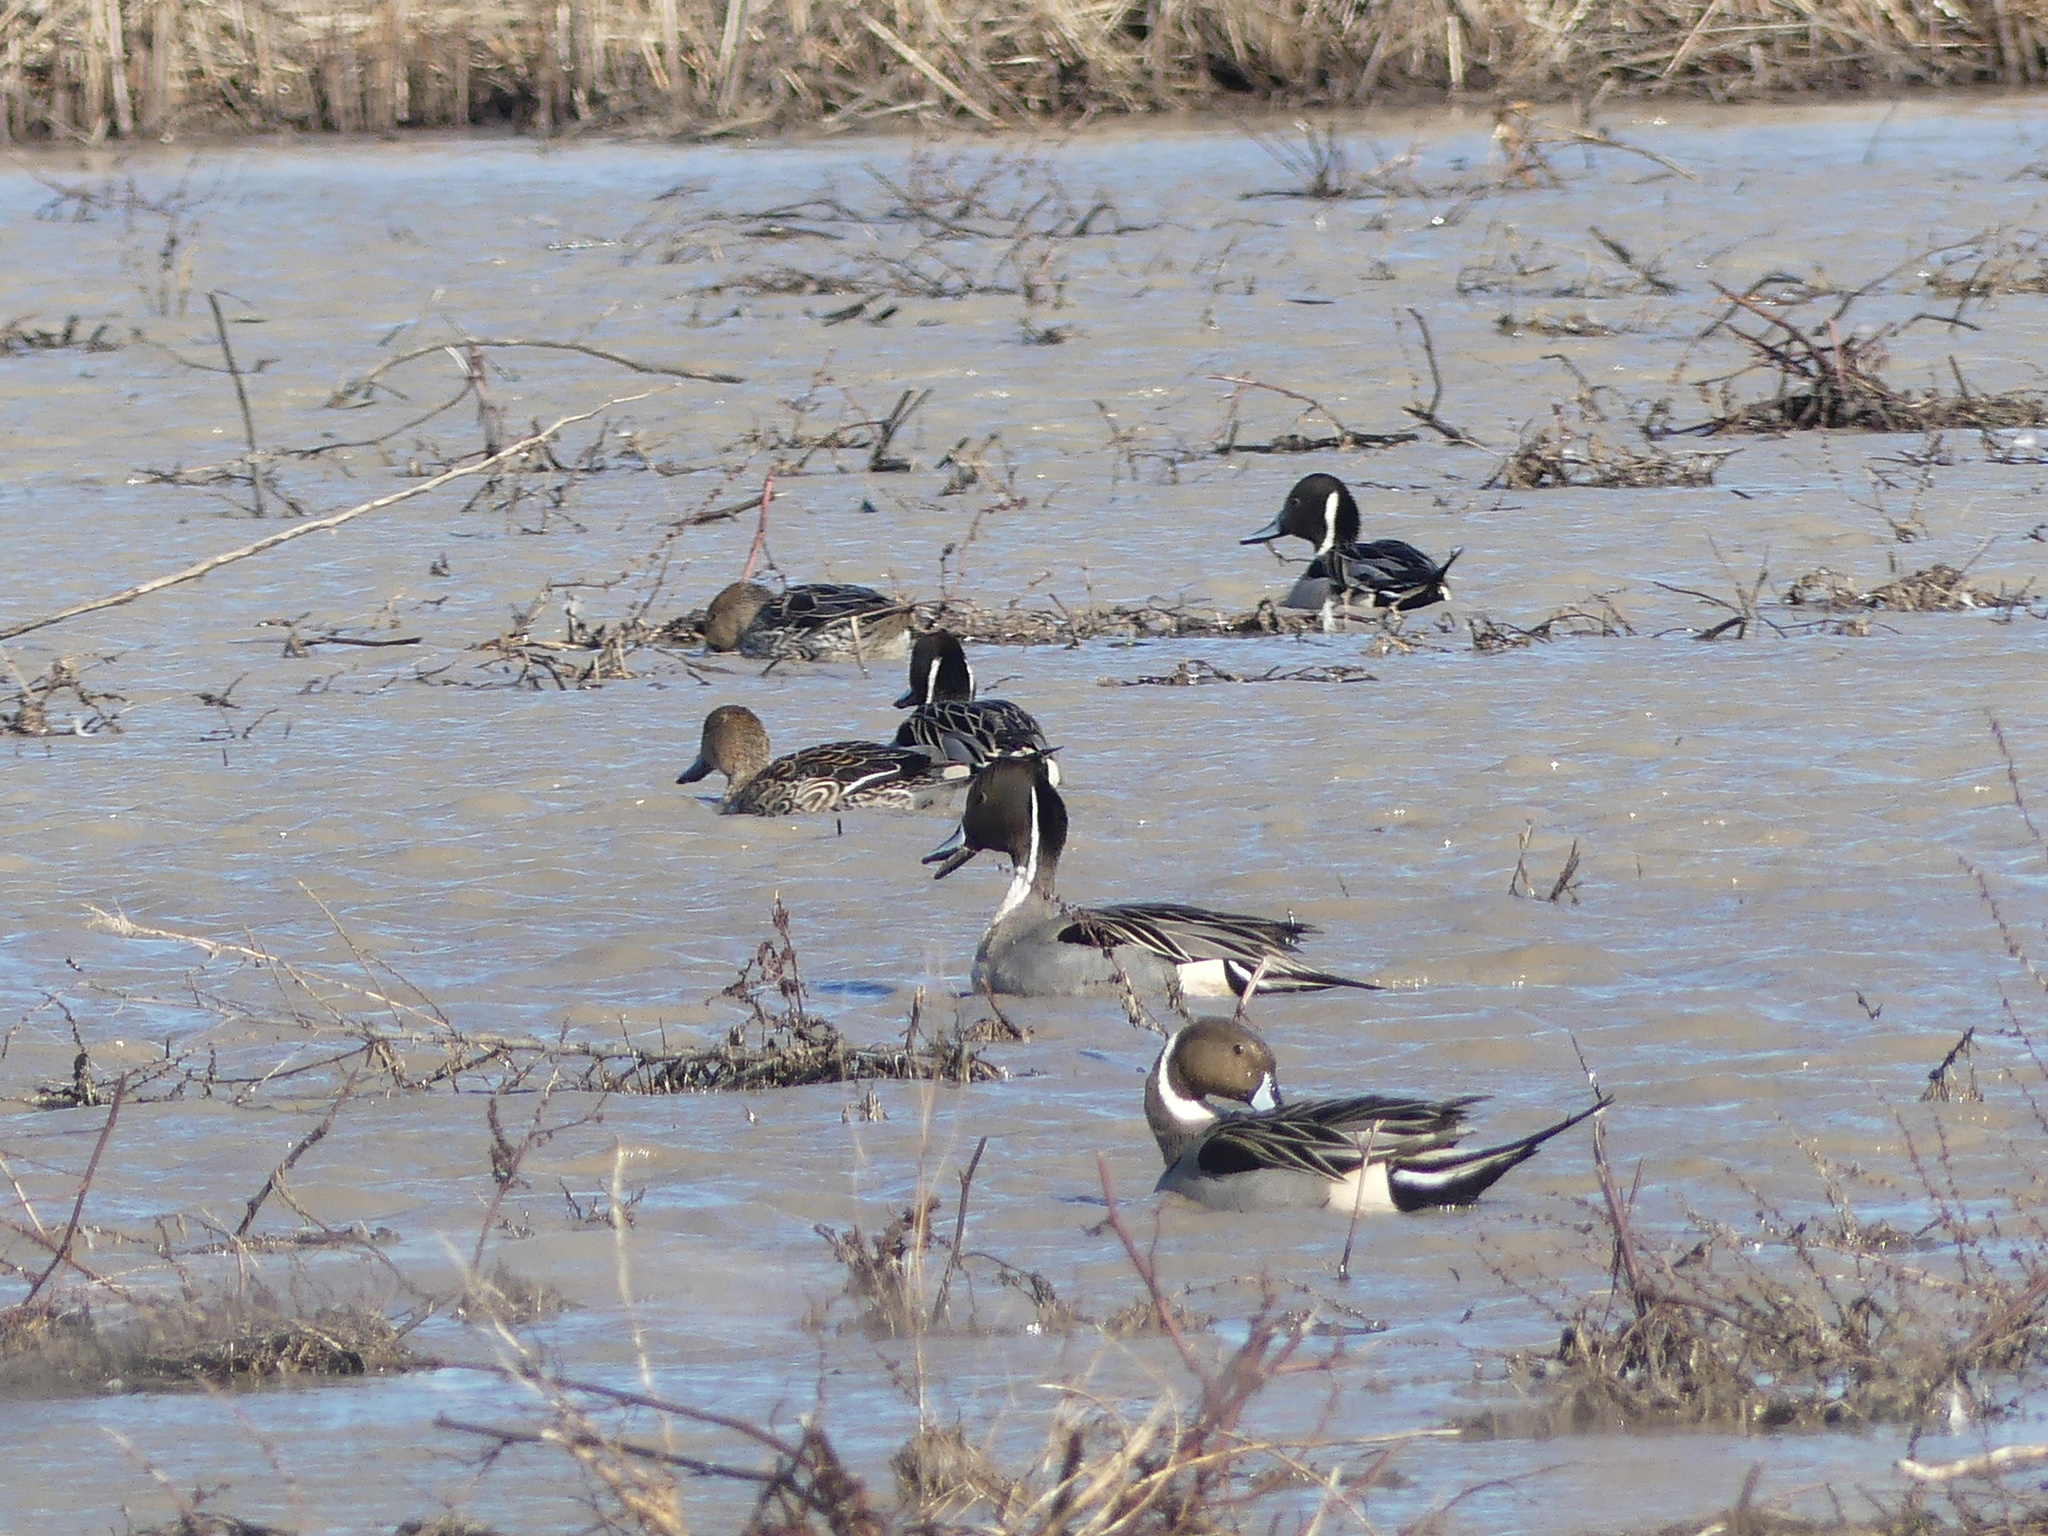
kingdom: Animalia
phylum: Chordata
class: Aves
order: Anseriformes
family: Anatidae
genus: Anas
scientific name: Anas acuta
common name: Northern pintail
